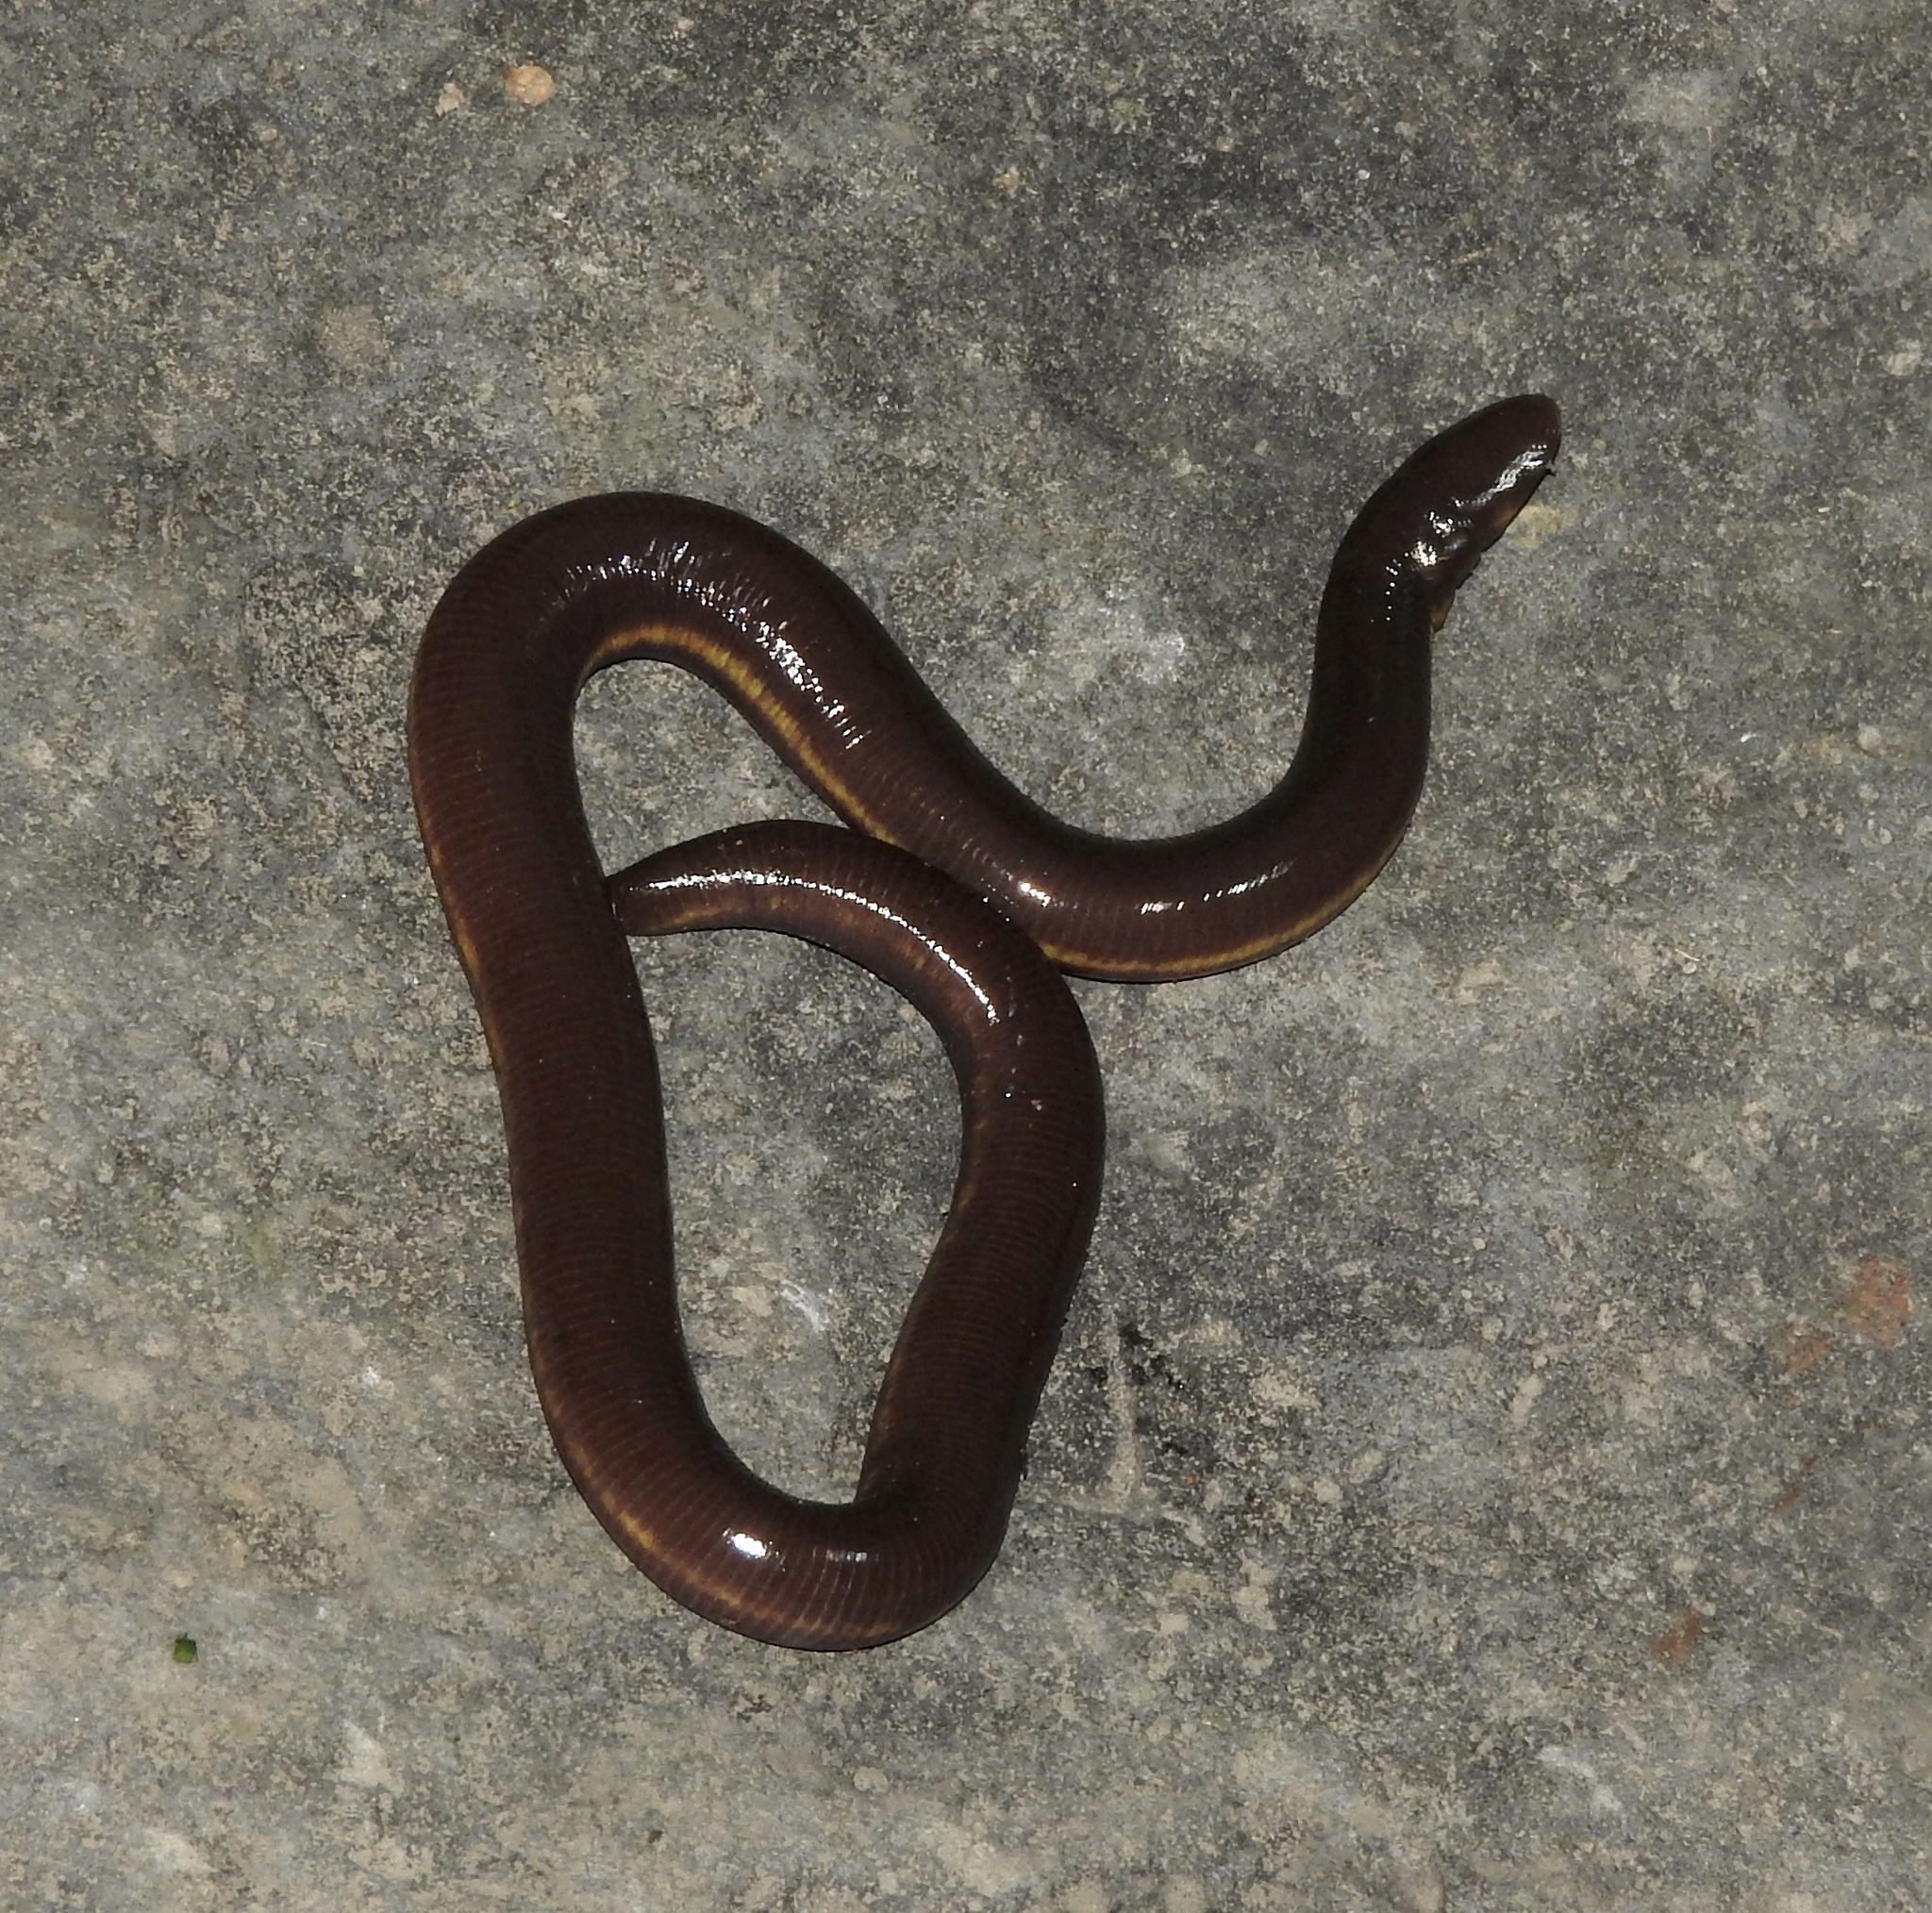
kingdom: Animalia
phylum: Chordata
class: Amphibia
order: Gymnophiona
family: Ichthyophiidae
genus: Ichthyophis
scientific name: Ichthyophis hypocyaneus
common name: Javan caecilian
